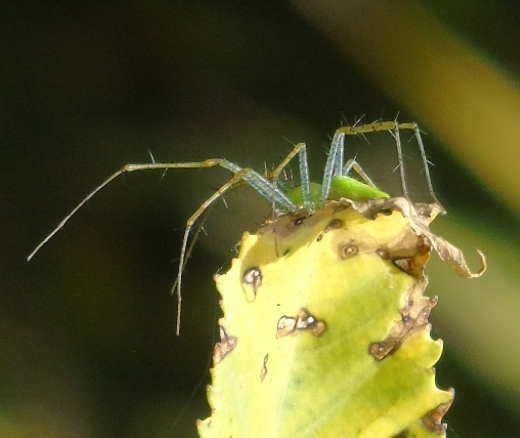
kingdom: Animalia
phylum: Arthropoda
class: Arachnida
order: Araneae
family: Oxyopidae
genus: Peucetia
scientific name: Peucetia viridans
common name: Lynx spiders
